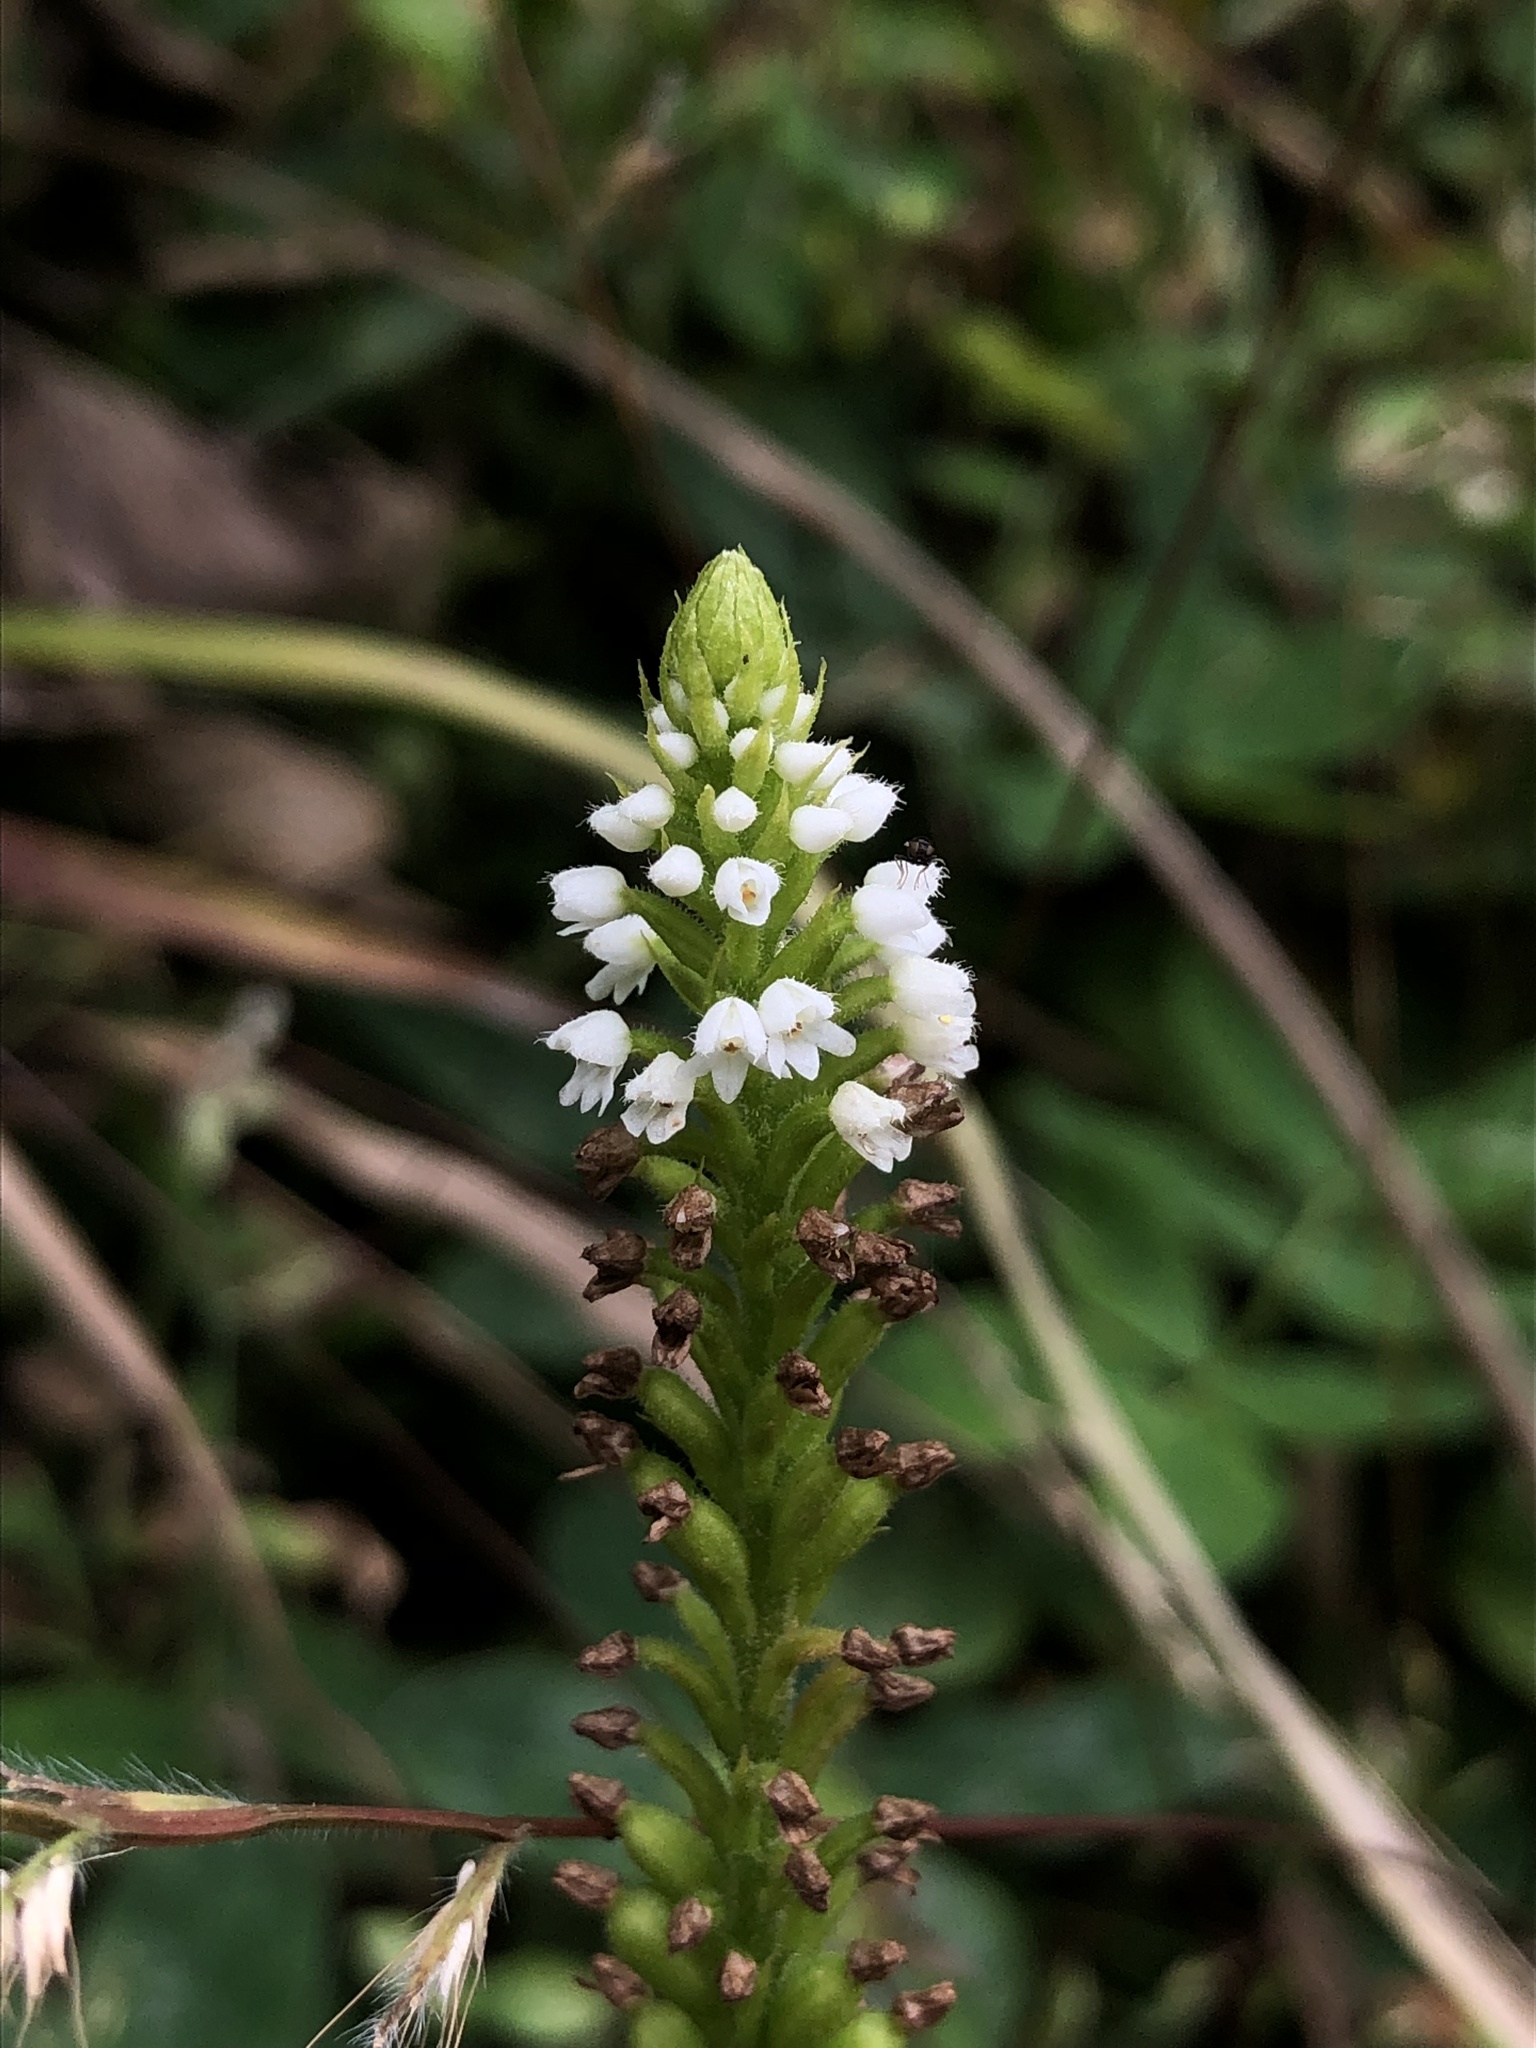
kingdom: Plantae
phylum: Tracheophyta
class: Liliopsida
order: Asparagales
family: Orchidaceae
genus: Ponthieva
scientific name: Ponthieva fertilis
